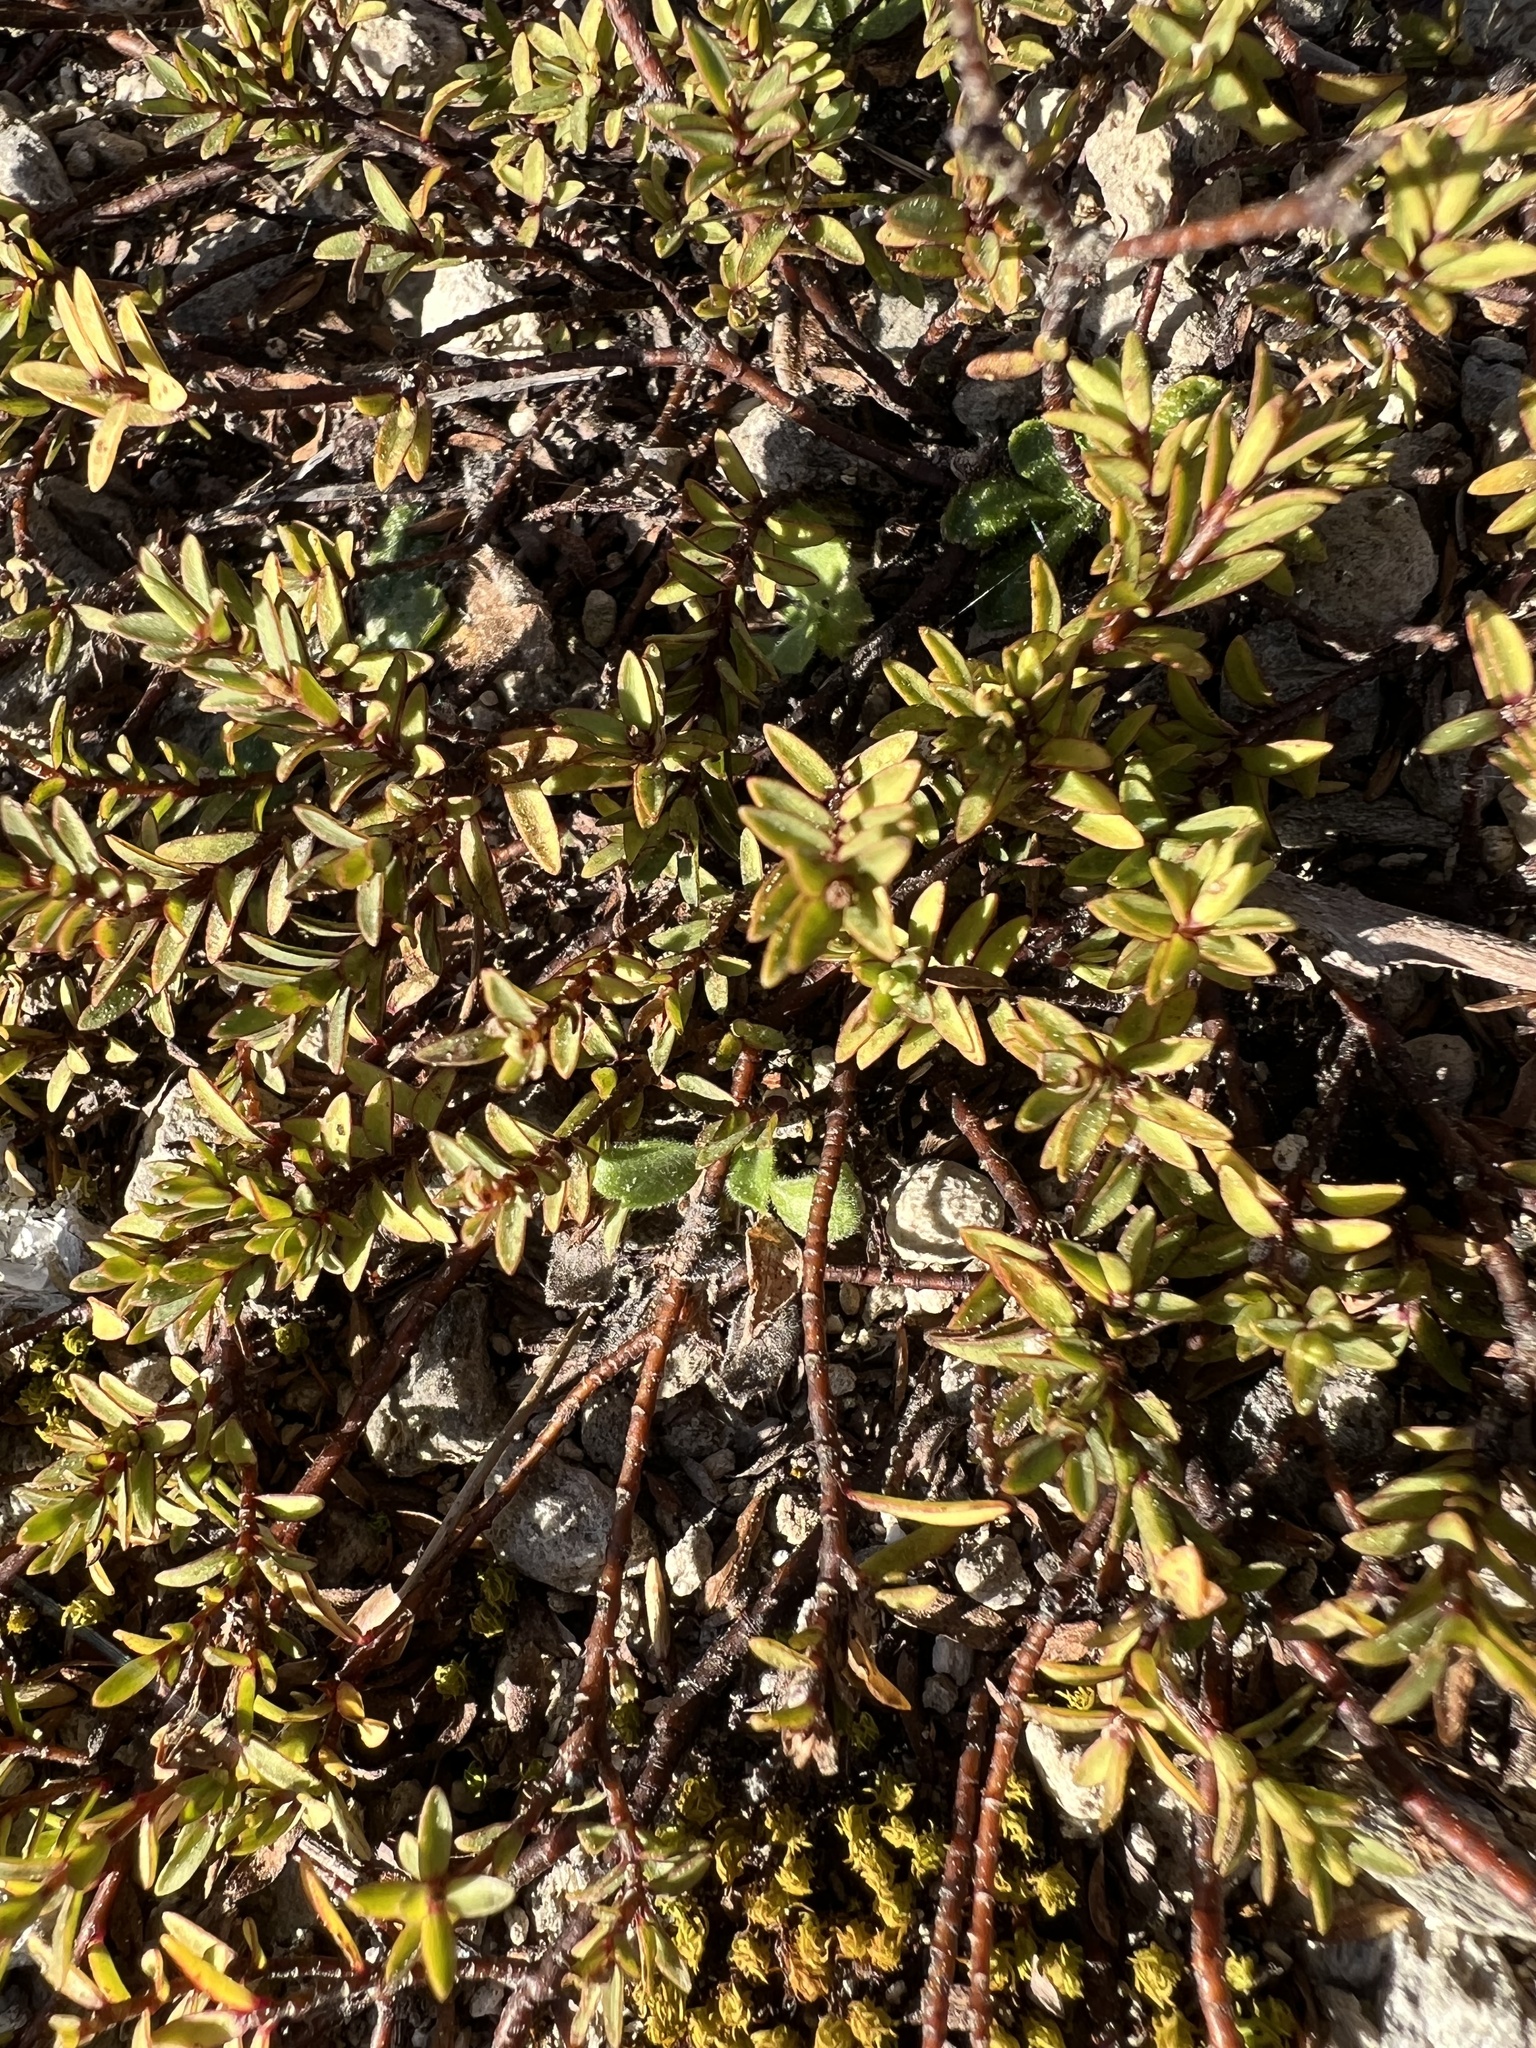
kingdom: Plantae
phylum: Tracheophyta
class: Magnoliopsida
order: Malvales
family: Thymelaeaceae
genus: Pimelea
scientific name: Pimelea prostrata
